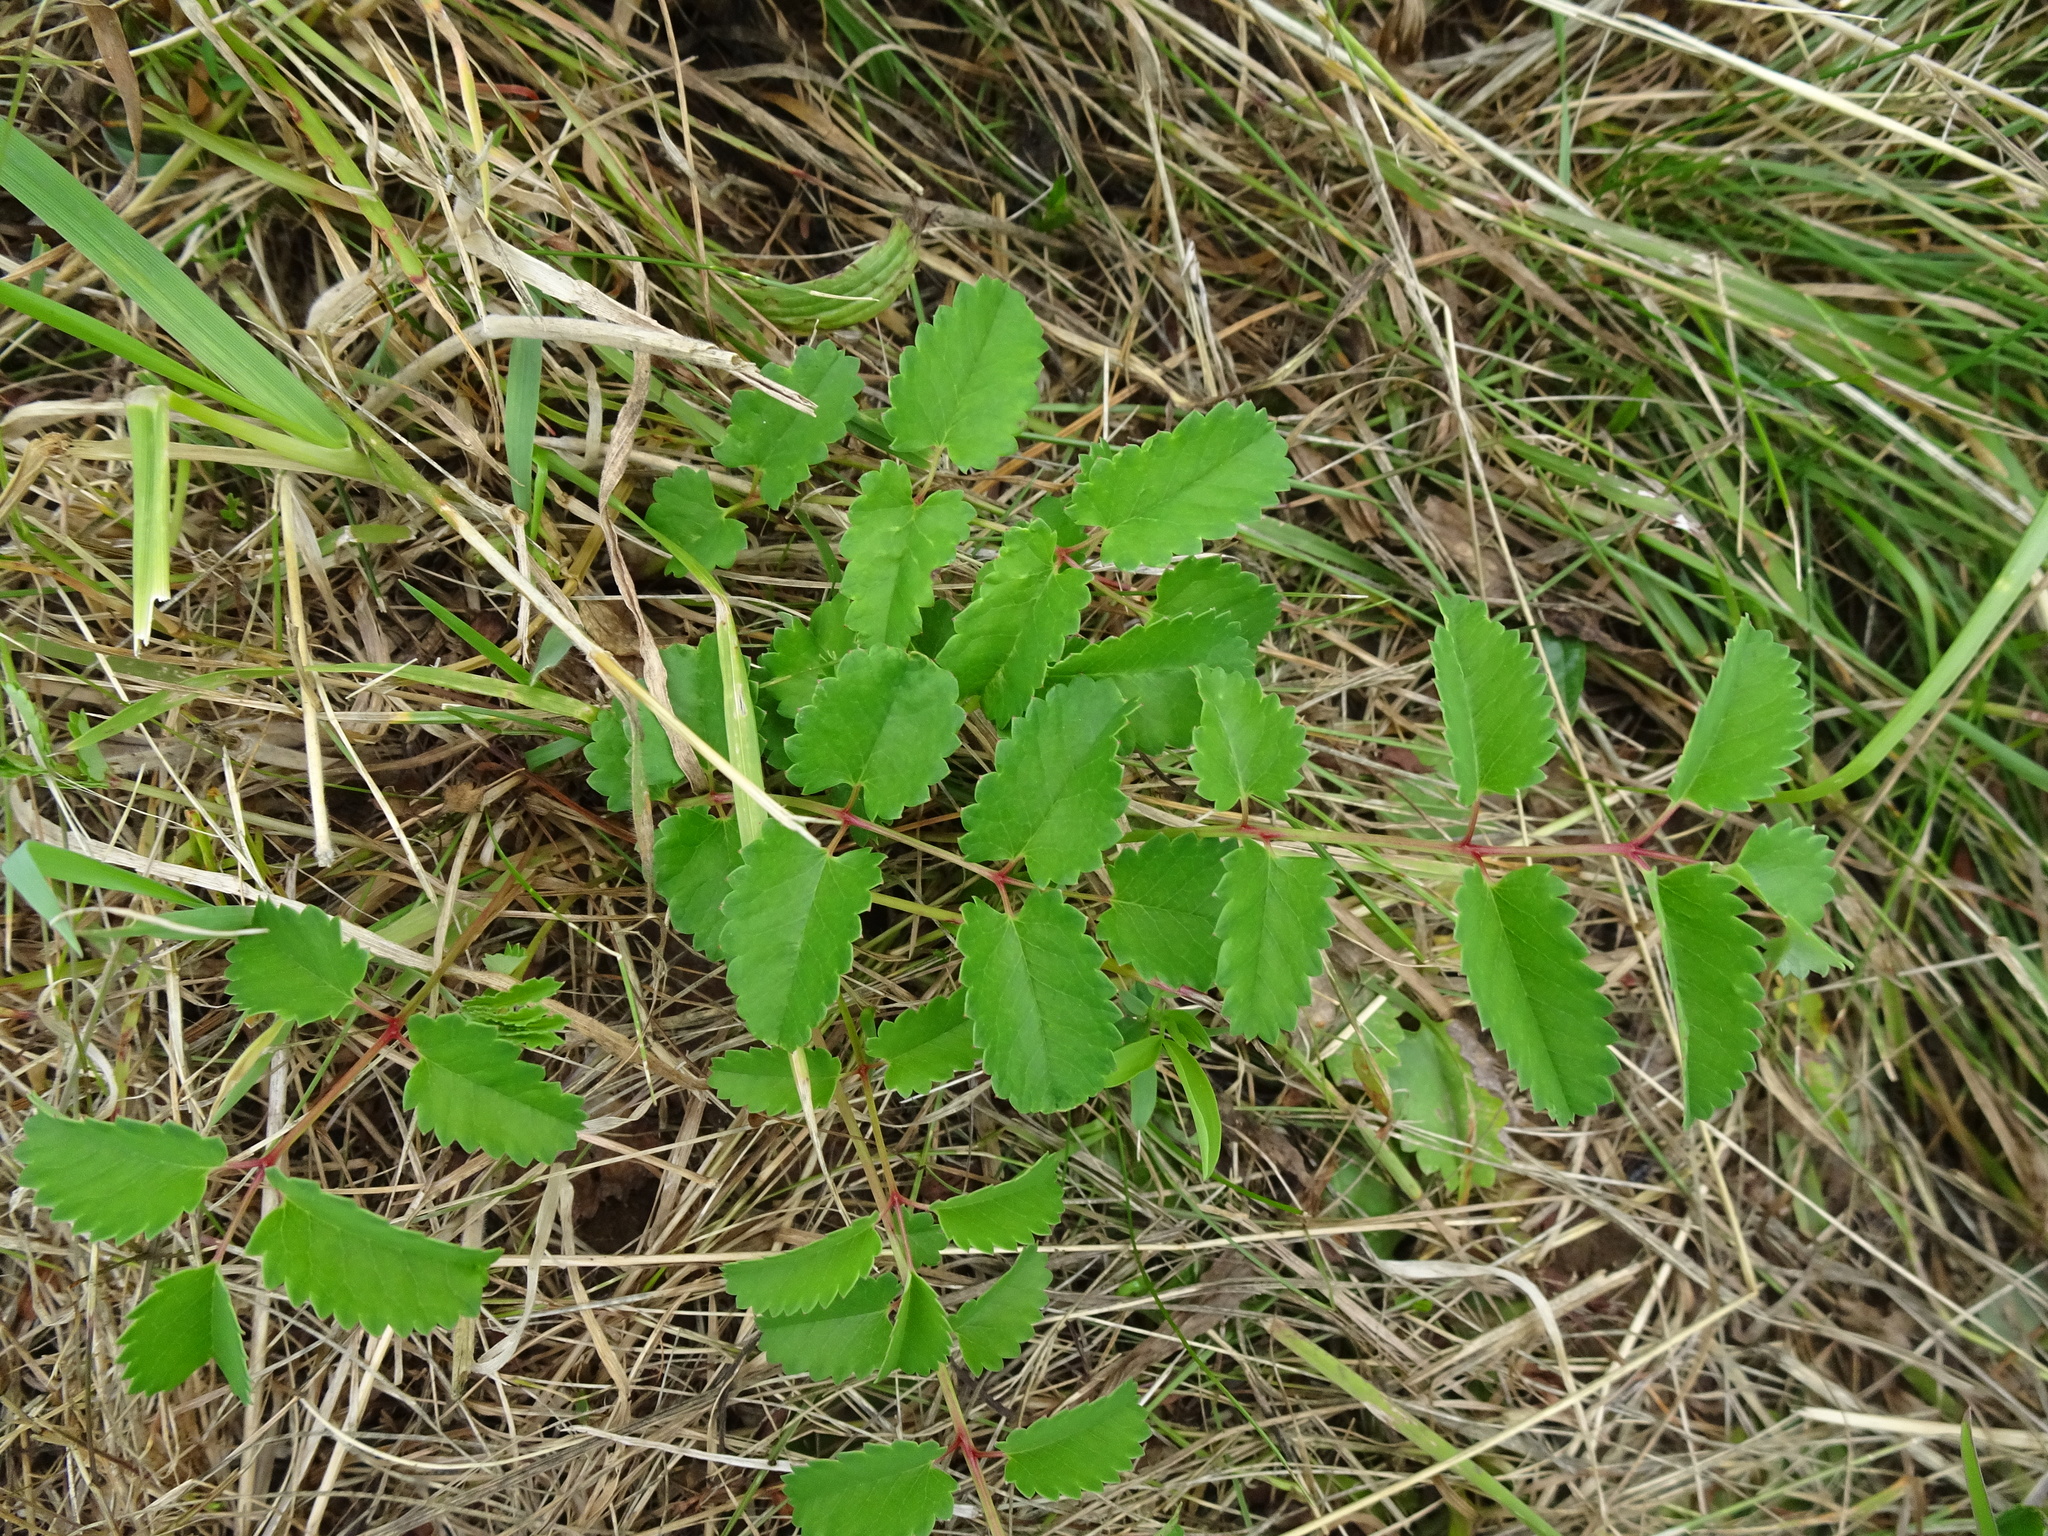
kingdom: Plantae
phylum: Tracheophyta
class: Magnoliopsida
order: Rosales
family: Rosaceae
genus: Sanguisorba
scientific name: Sanguisorba officinalis
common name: Great burnet
